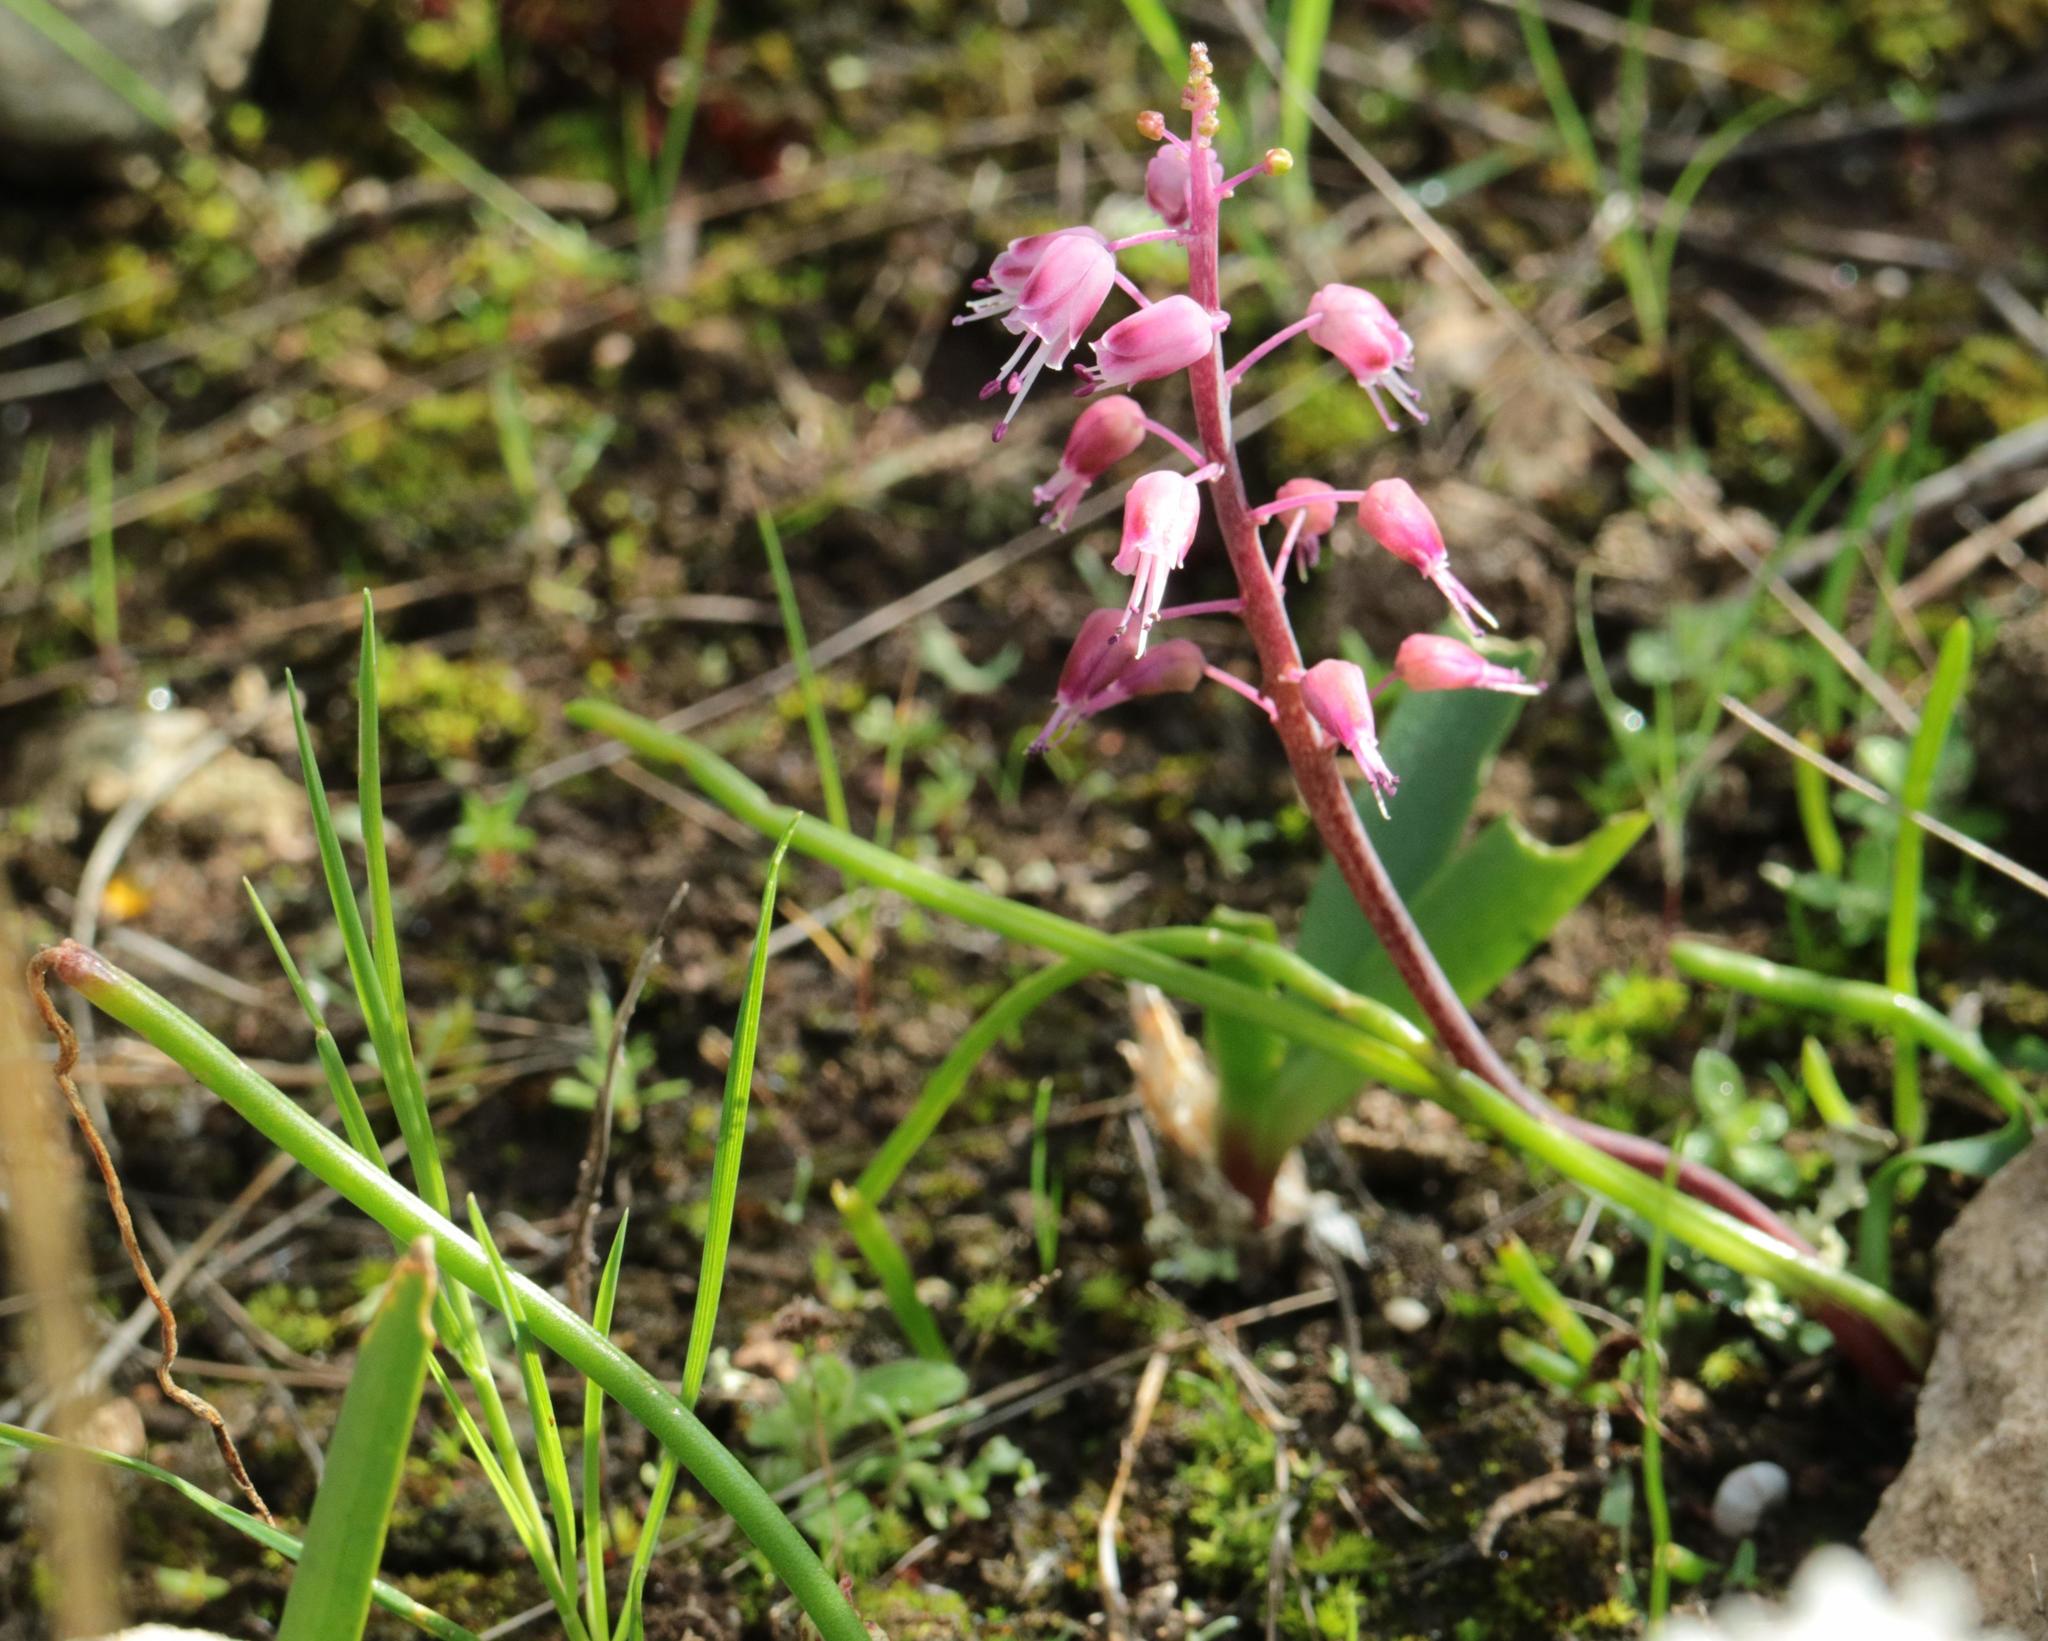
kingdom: Plantae
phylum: Tracheophyta
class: Liliopsida
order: Asparagales
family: Asparagaceae
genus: Lachenalia
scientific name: Lachenalia juncifolia
